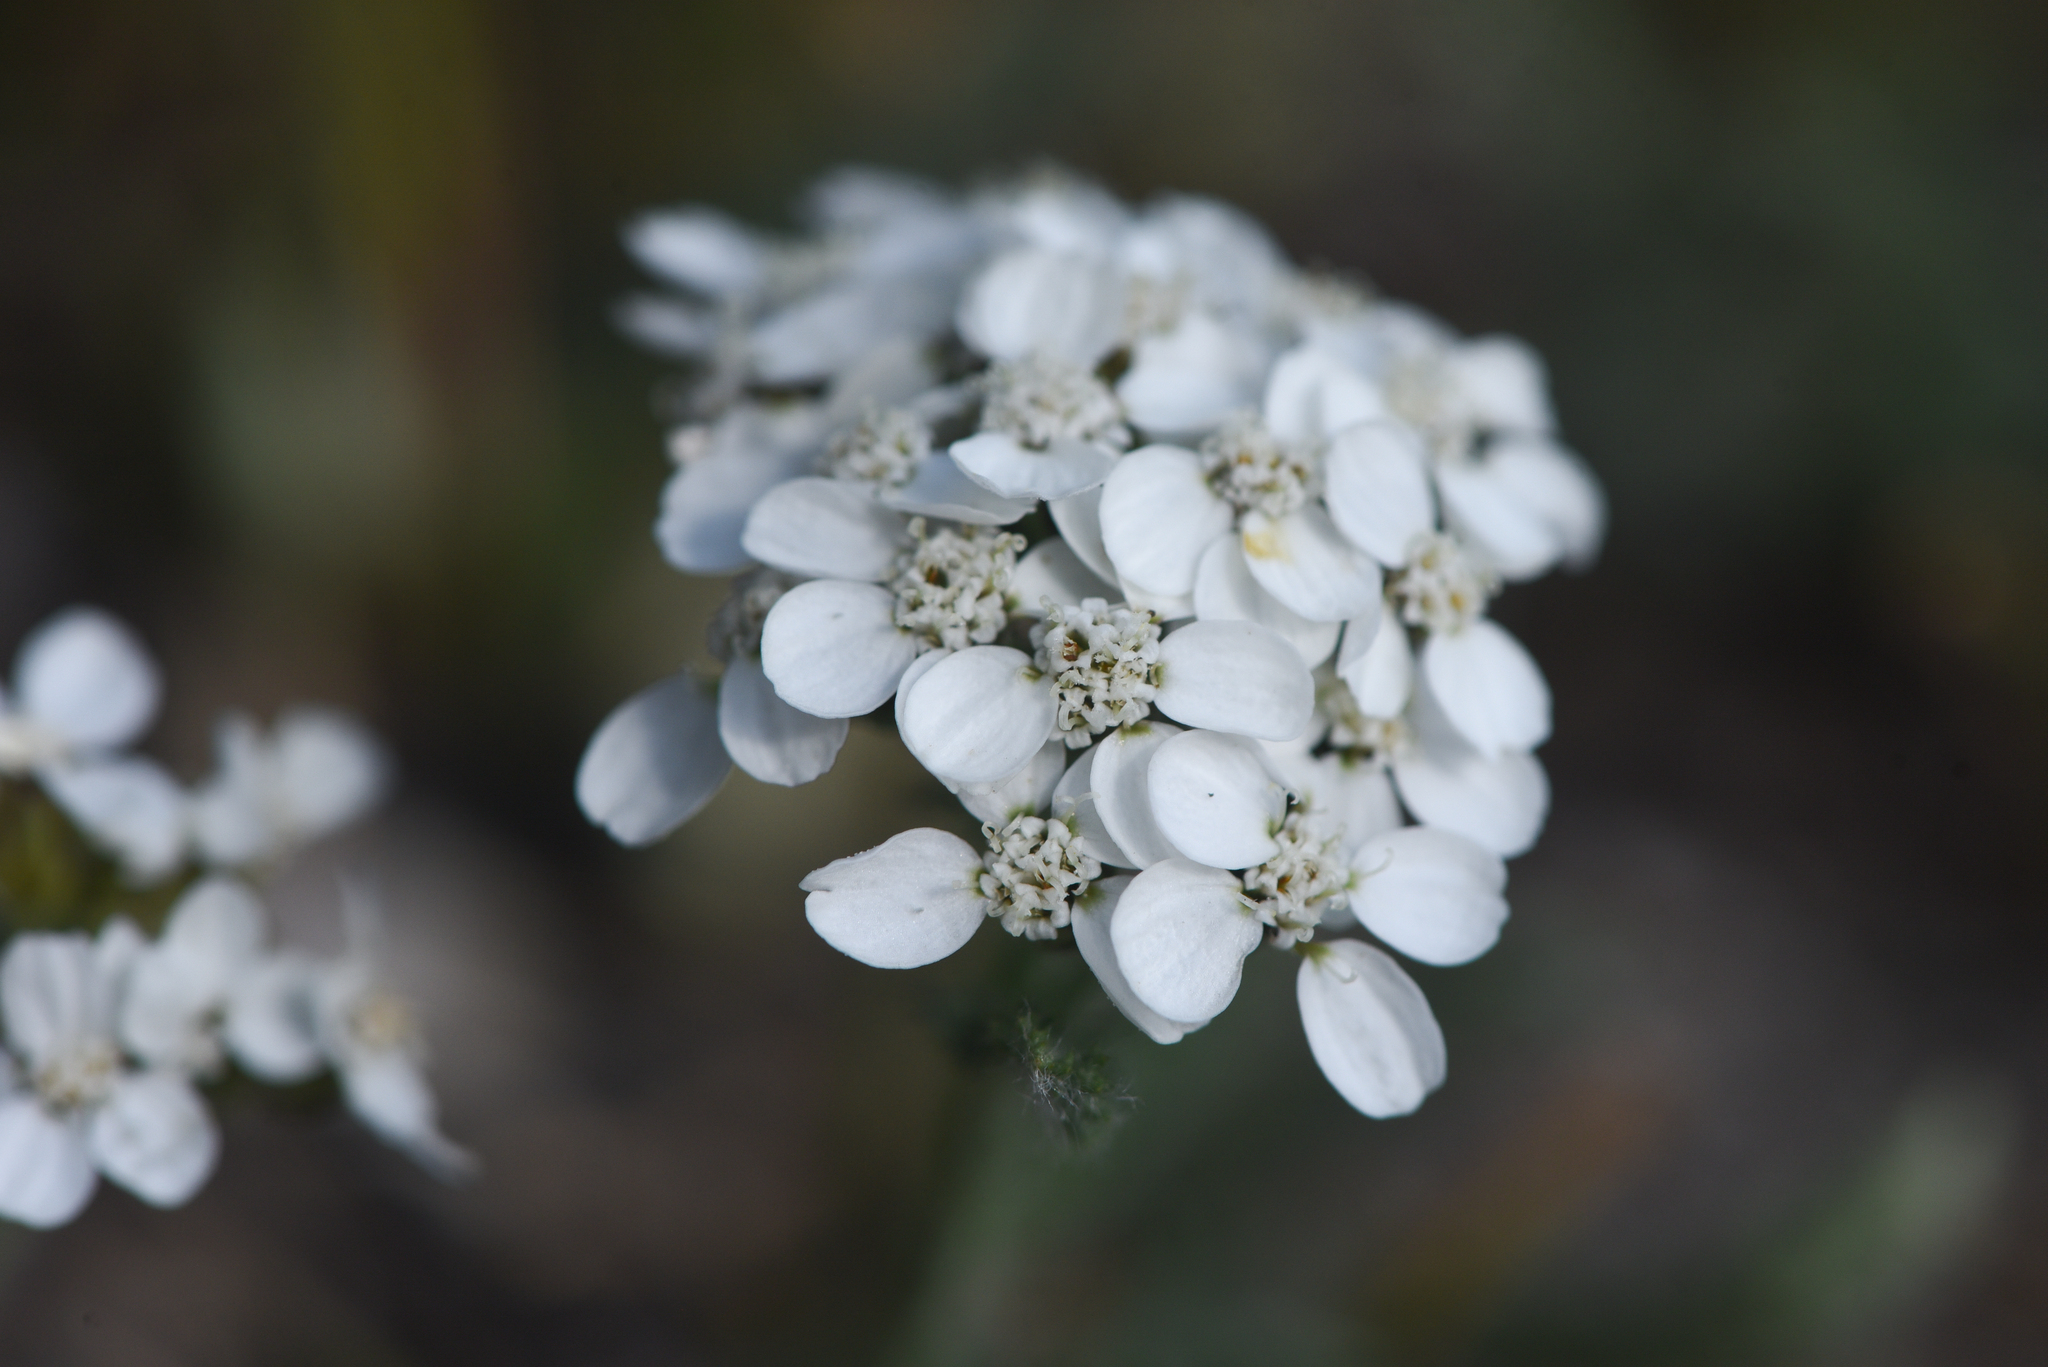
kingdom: Plantae
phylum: Tracheophyta
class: Magnoliopsida
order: Asterales
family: Asteraceae
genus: Achillea
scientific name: Achillea millefolium
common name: Yarrow
